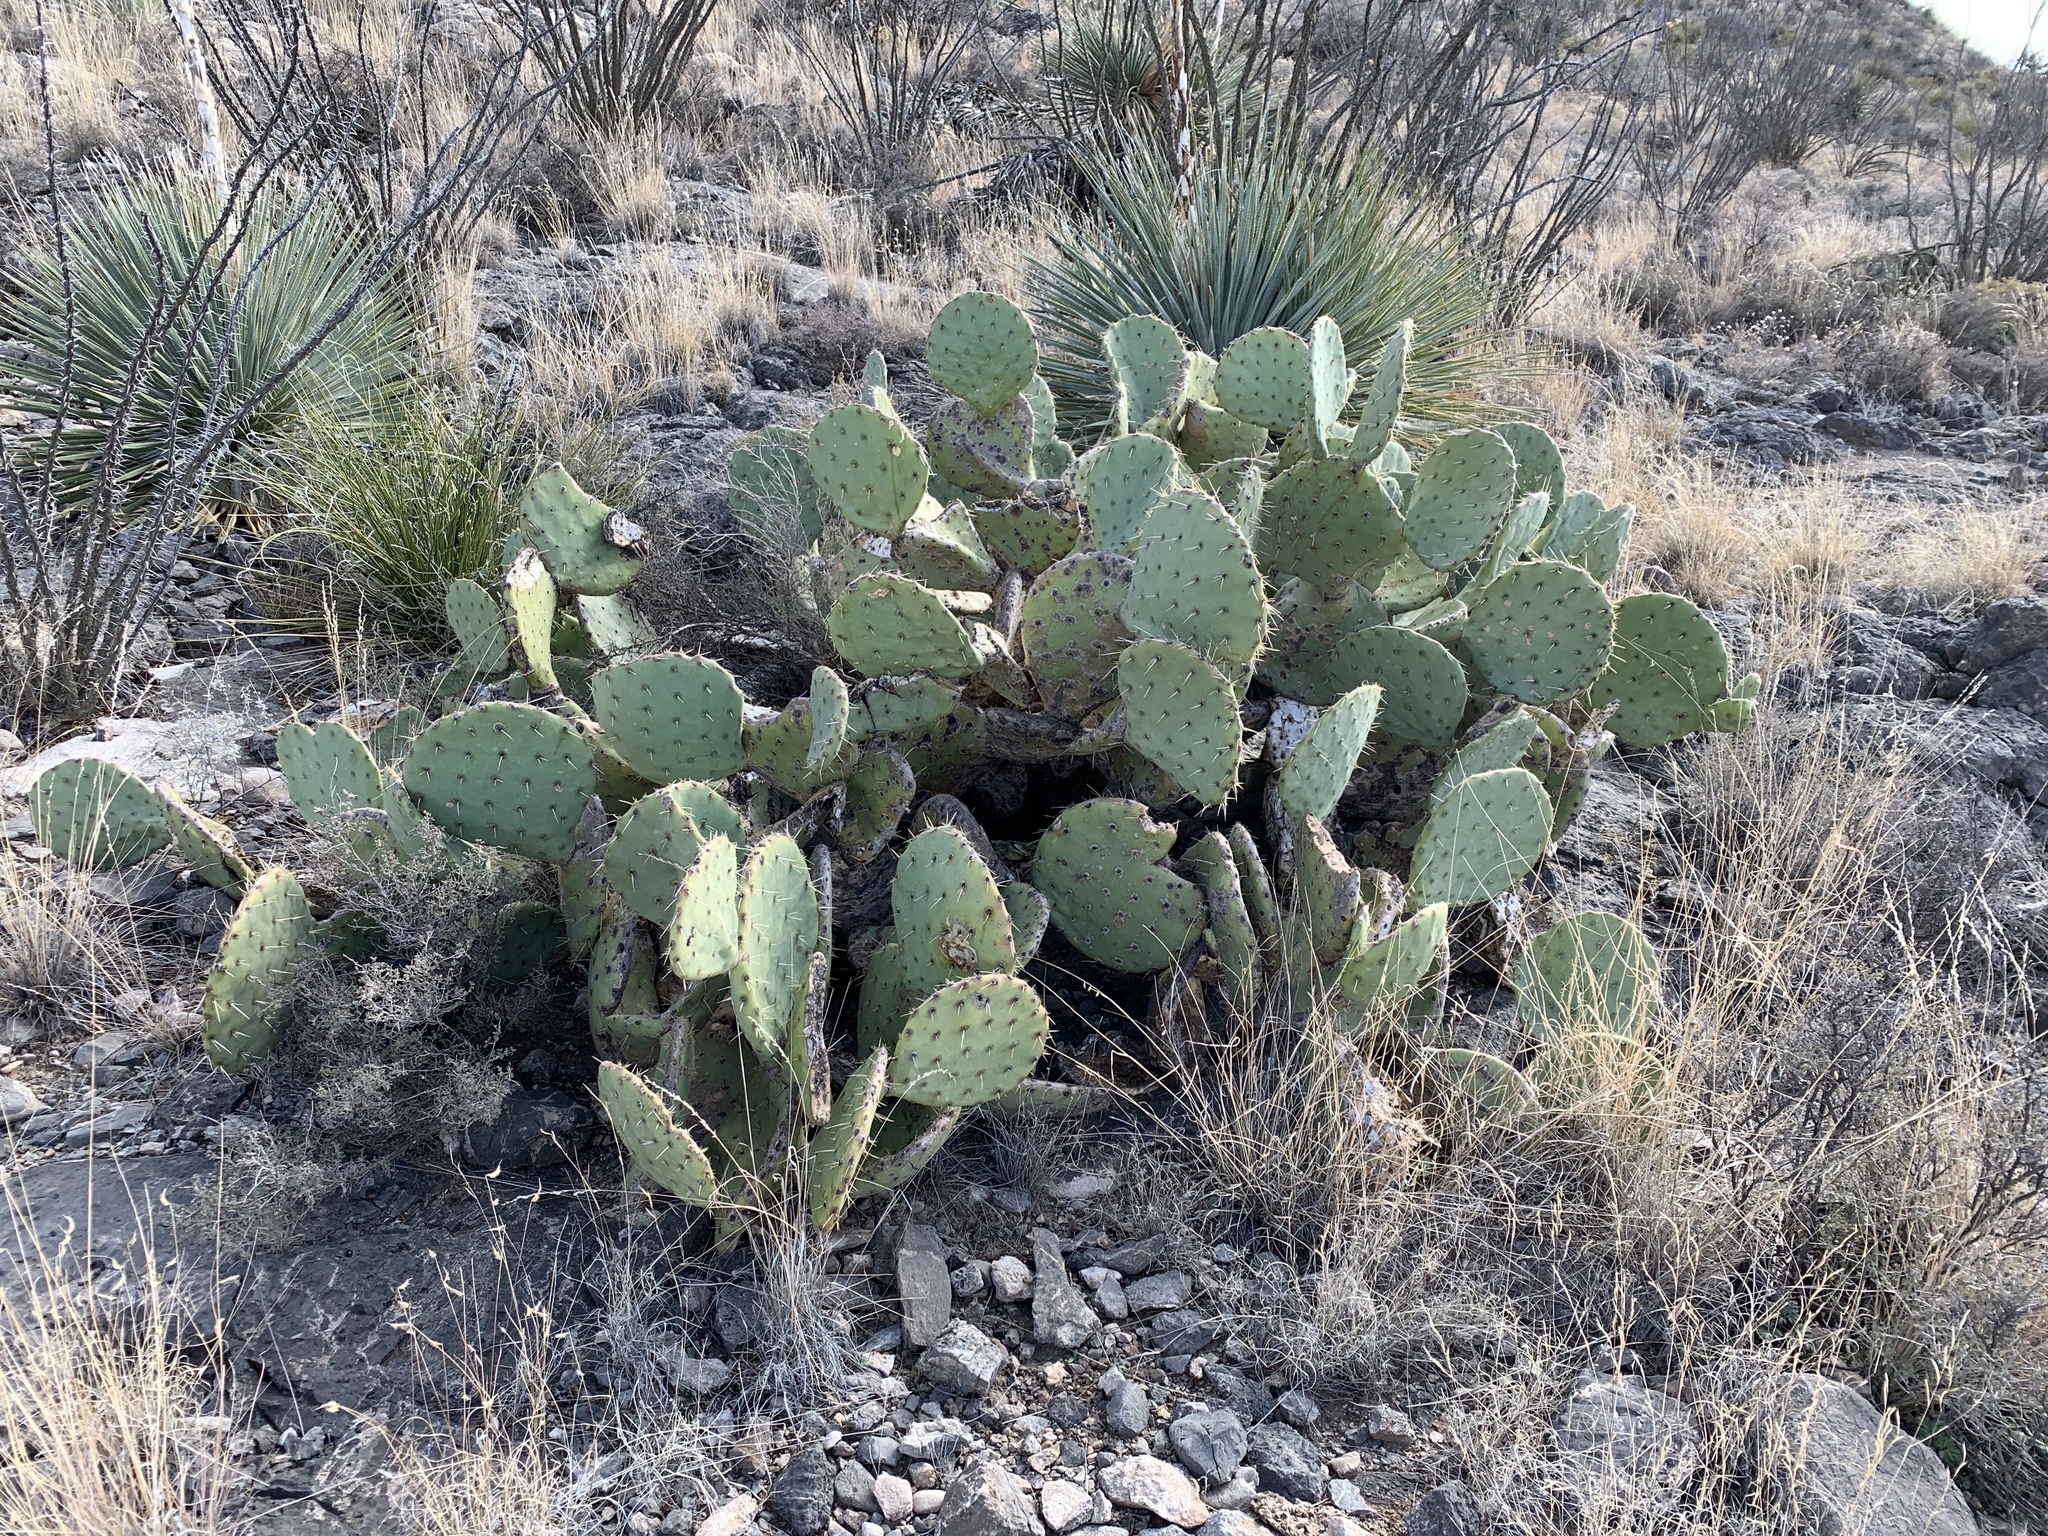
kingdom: Plantae
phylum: Tracheophyta
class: Magnoliopsida
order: Caryophyllales
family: Cactaceae
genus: Opuntia
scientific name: Opuntia engelmannii
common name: Cactus-apple
